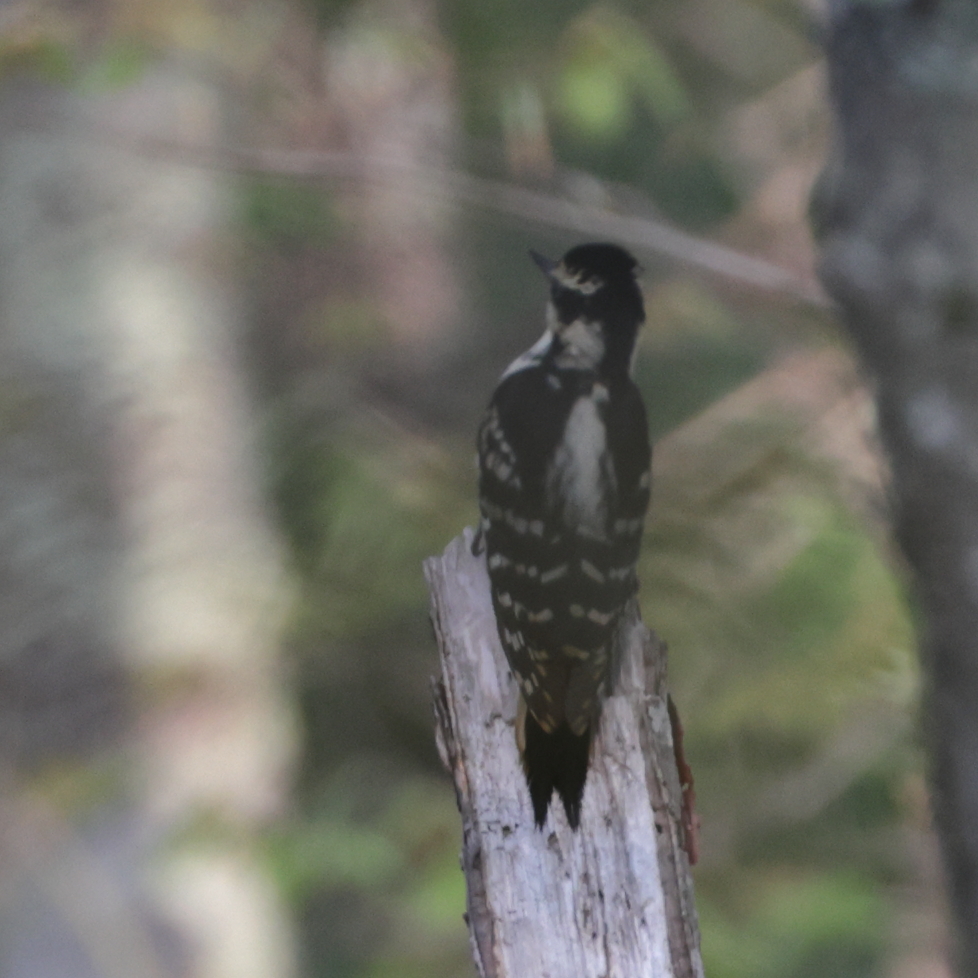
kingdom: Animalia
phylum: Chordata
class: Aves
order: Piciformes
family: Picidae
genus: Leuconotopicus
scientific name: Leuconotopicus villosus
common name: Hairy woodpecker
